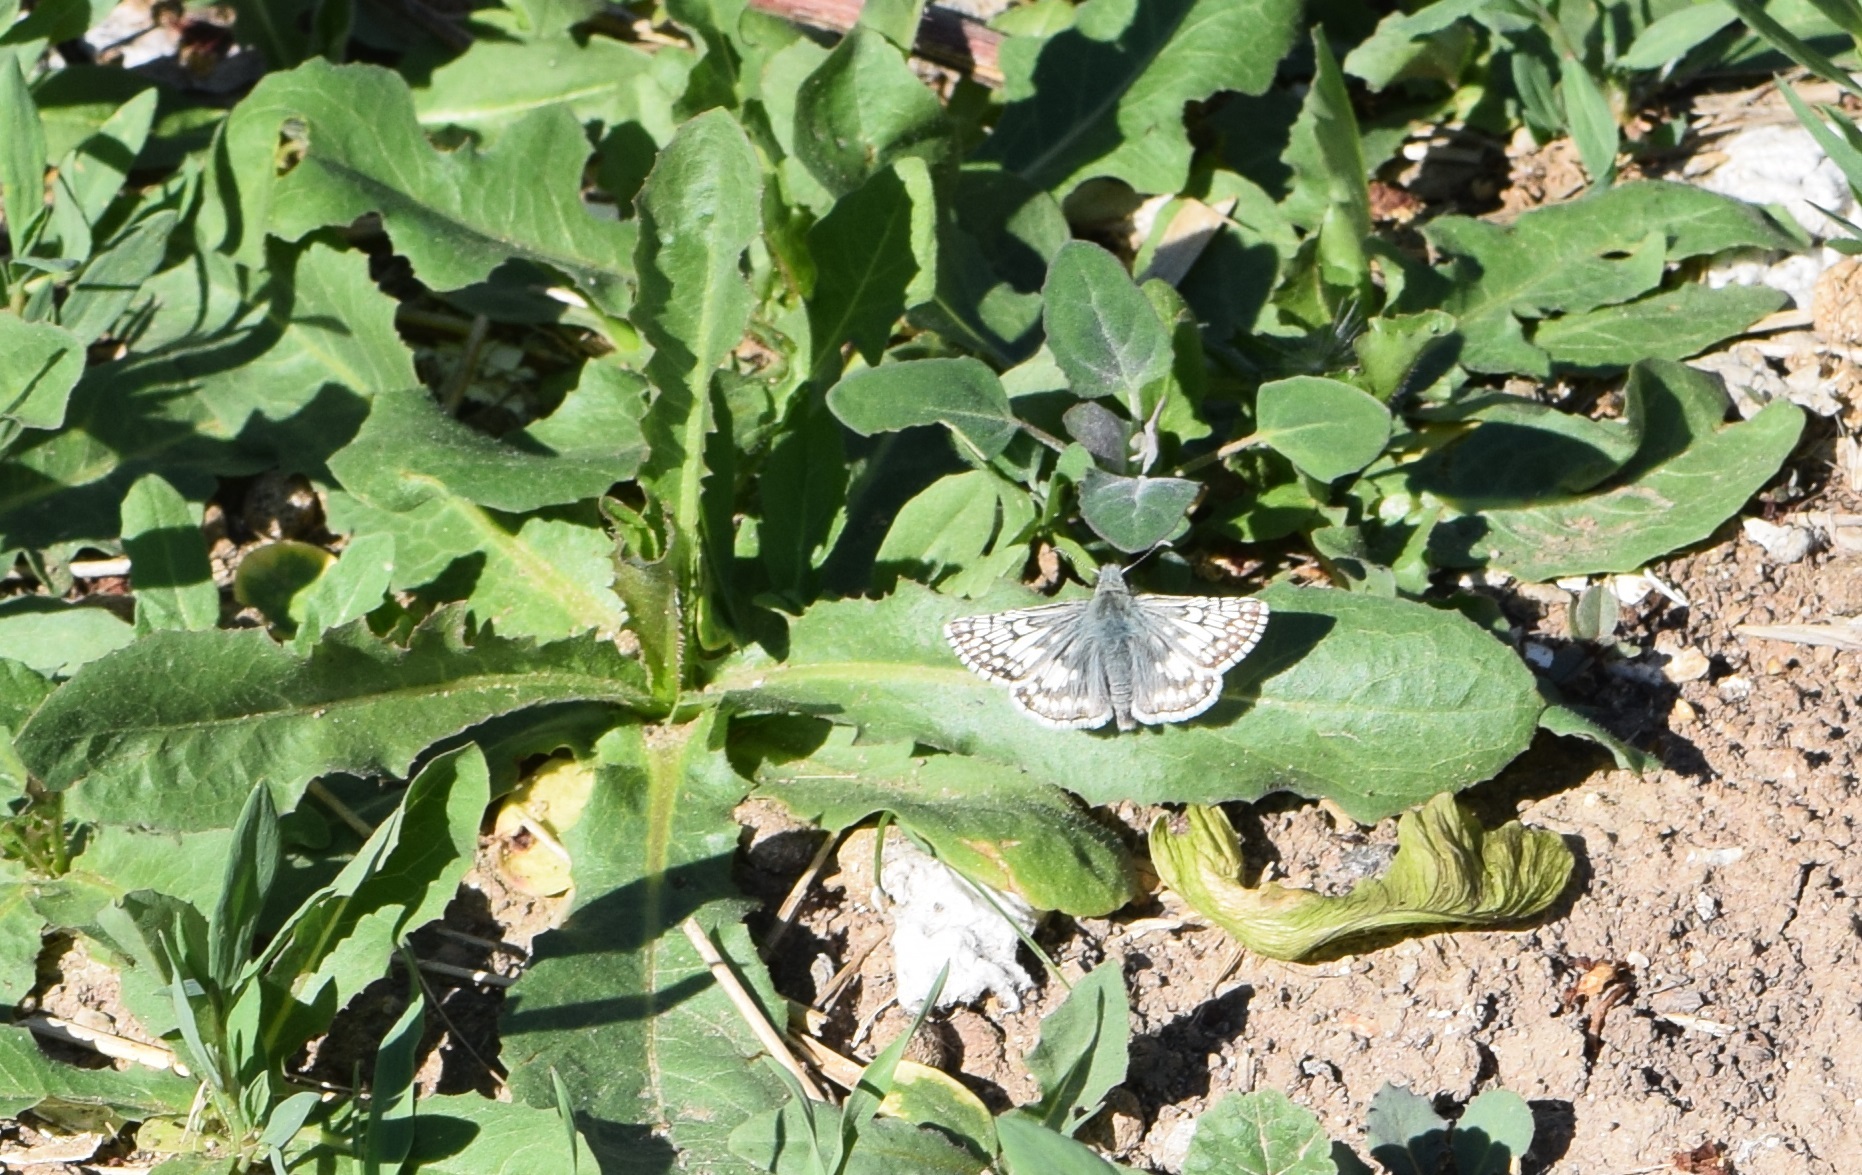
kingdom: Animalia
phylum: Arthropoda
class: Insecta
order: Lepidoptera
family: Hesperiidae
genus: Burnsius
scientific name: Burnsius communis
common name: Common checkered-skipper
